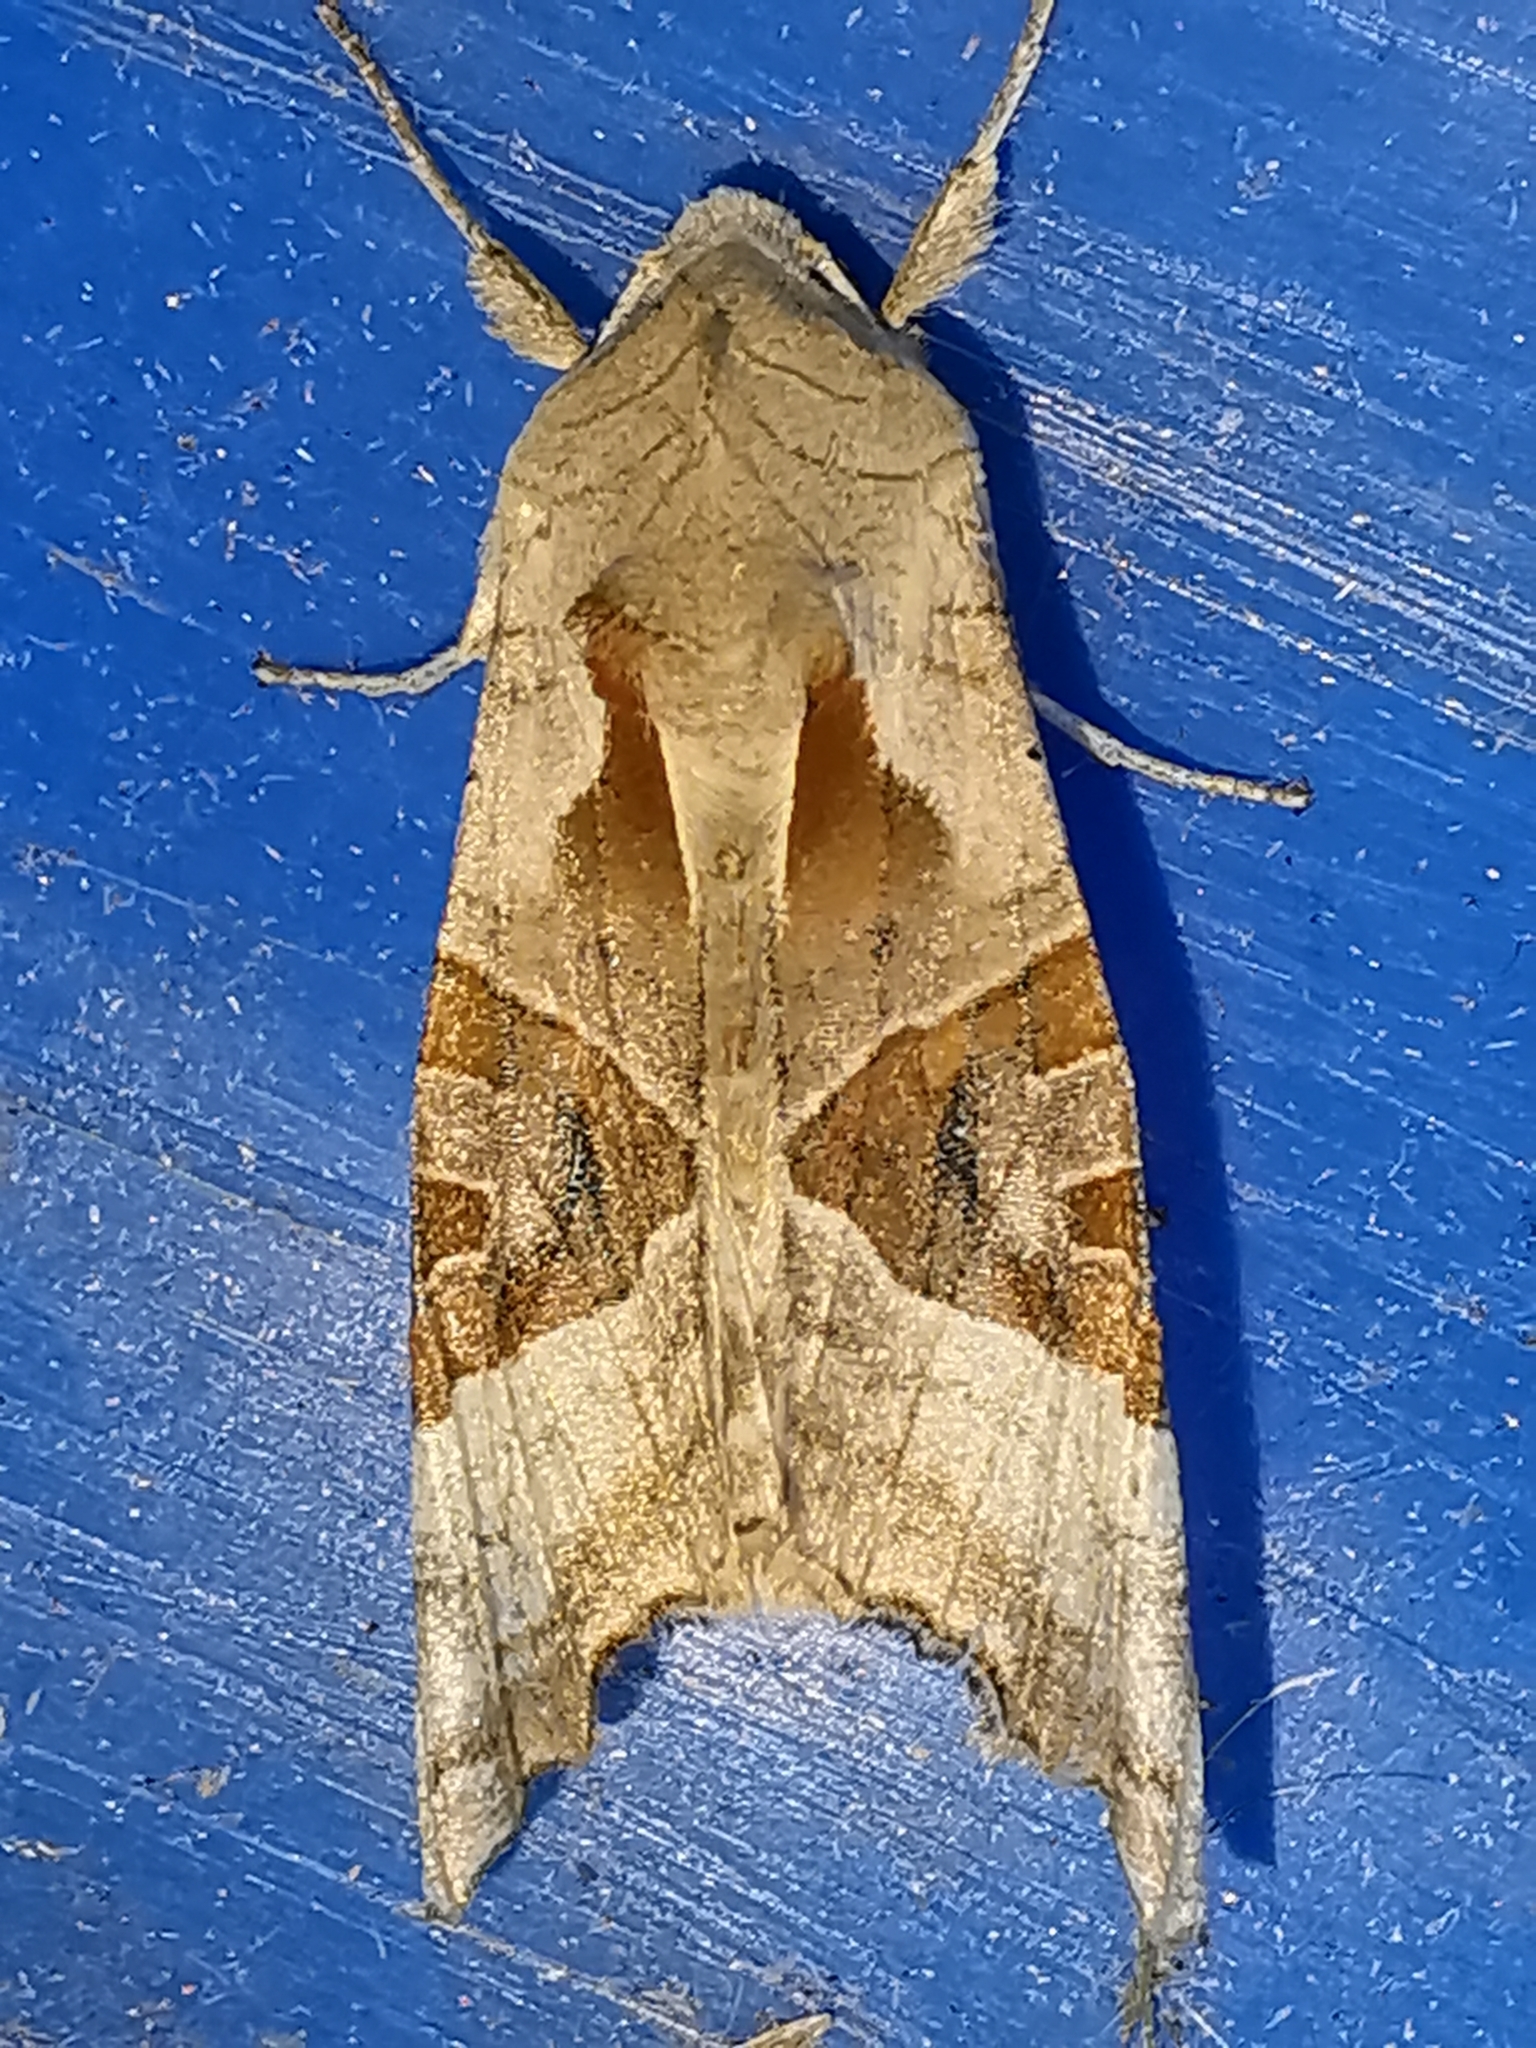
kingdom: Animalia
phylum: Arthropoda
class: Insecta
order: Lepidoptera
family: Noctuidae
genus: Phlogophora
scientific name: Phlogophora meticulosa
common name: Angle shades
